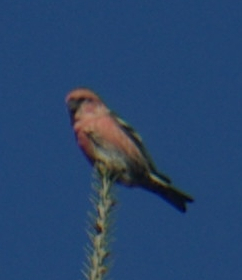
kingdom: Animalia
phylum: Chordata
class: Aves
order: Passeriformes
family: Fringillidae
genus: Loxia
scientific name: Loxia leucoptera
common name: Two-barred crossbill
